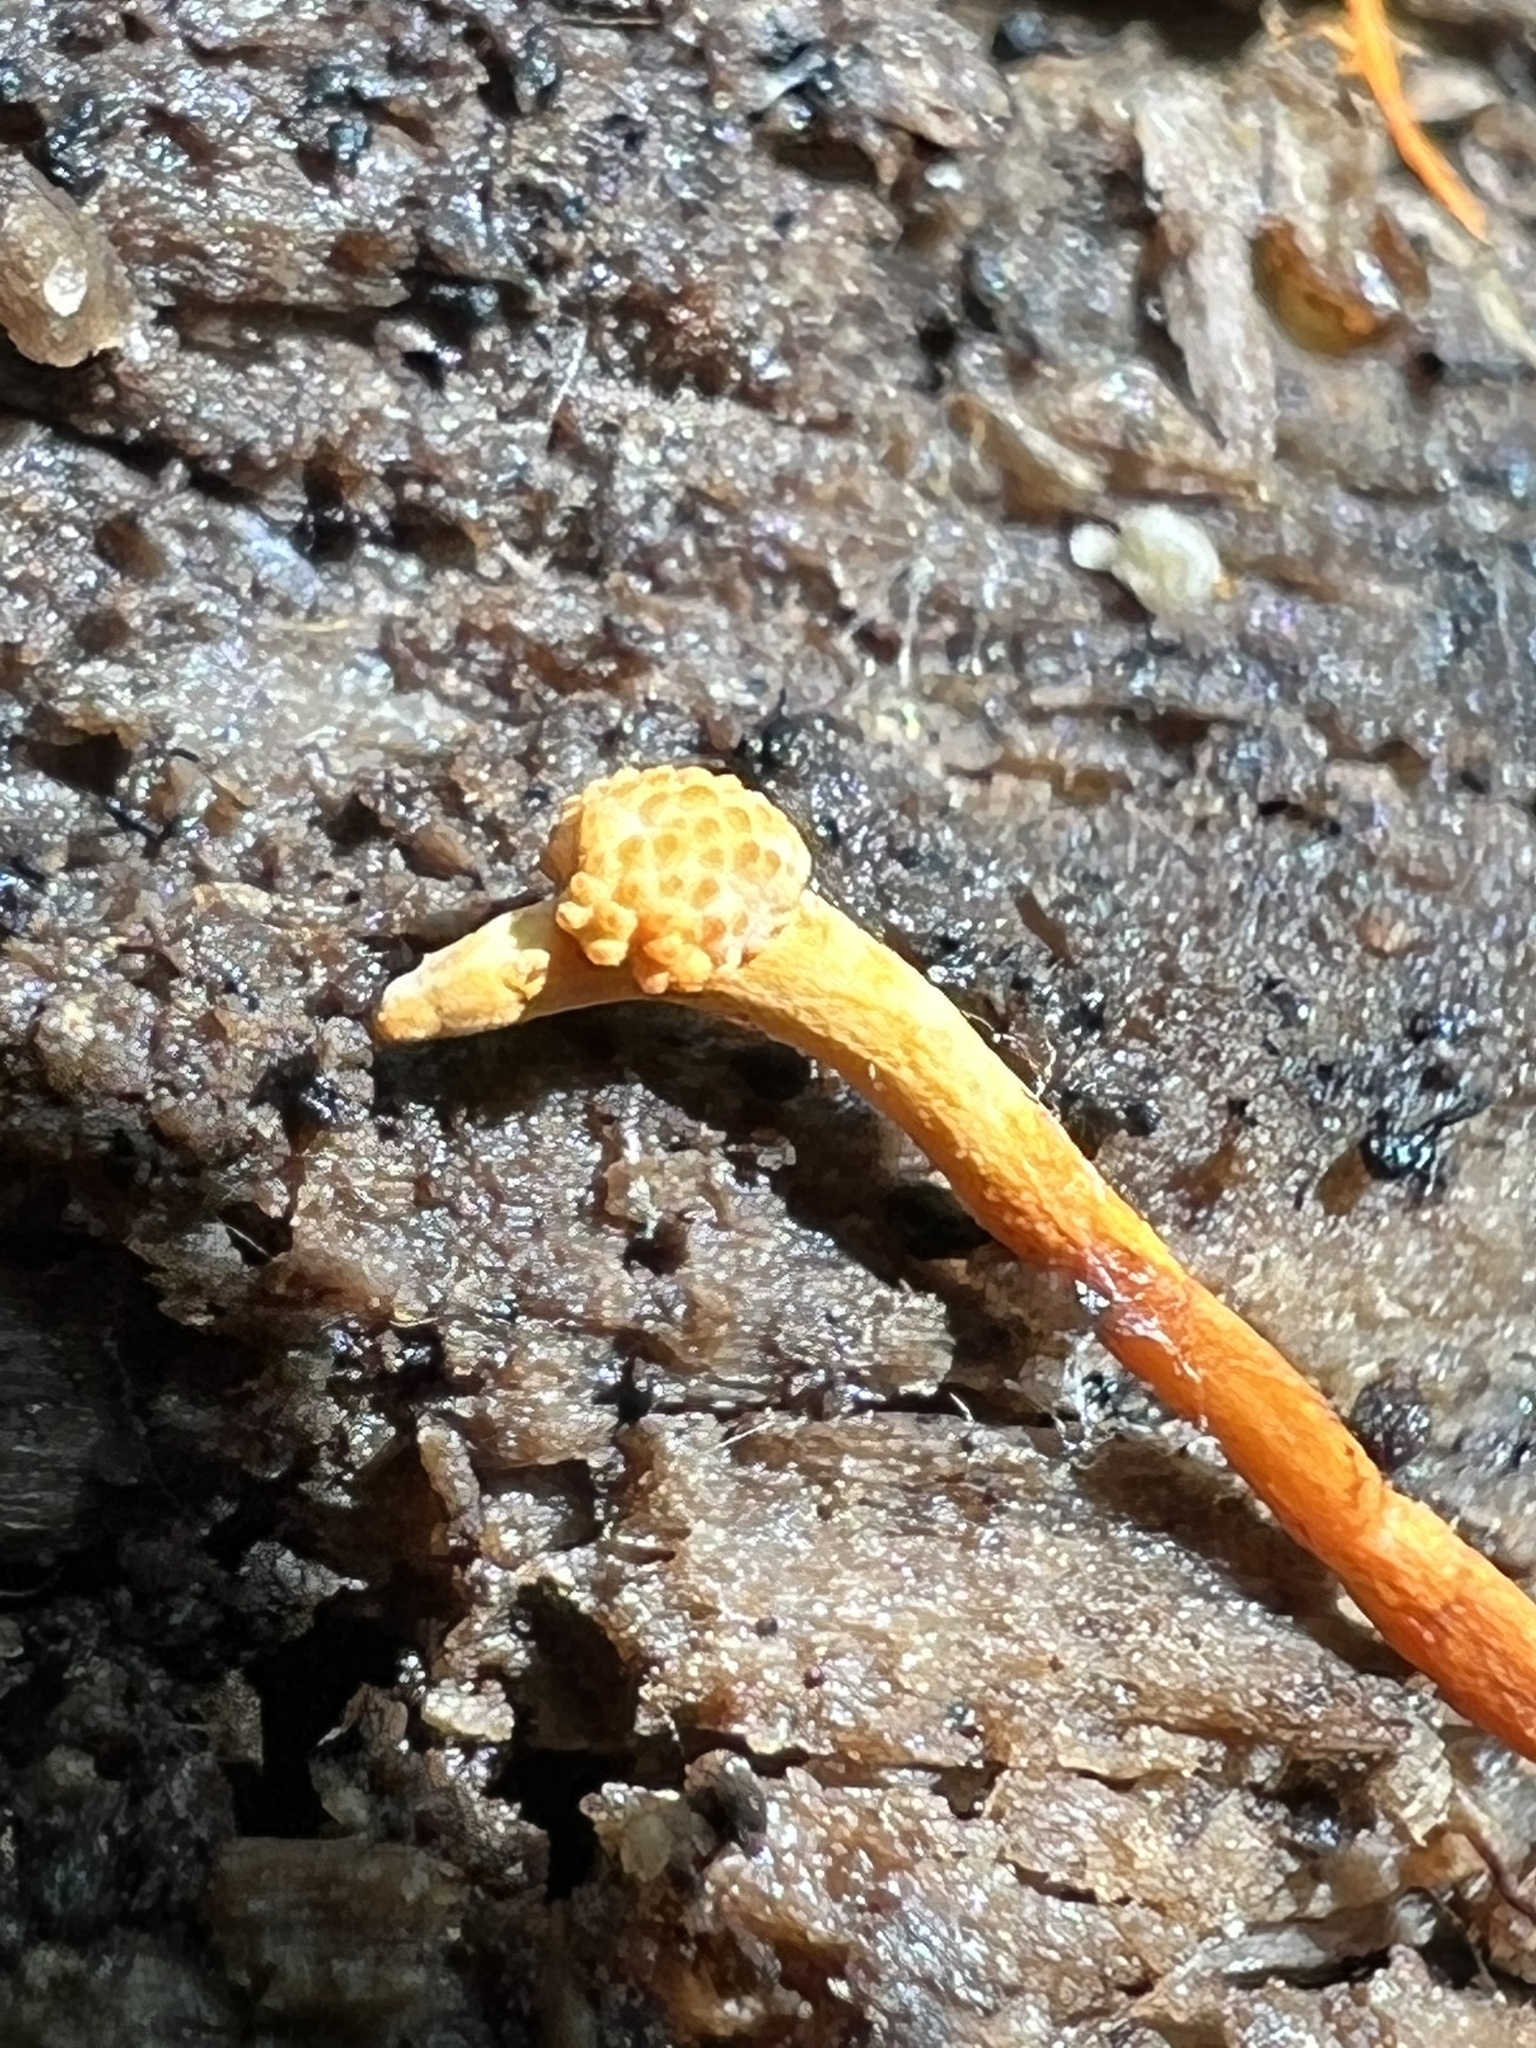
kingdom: Fungi
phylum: Ascomycota
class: Sordariomycetes
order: Hypocreales
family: Ophiocordycipitaceae
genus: Ophiocordyceps
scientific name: Ophiocordyceps variabilis
